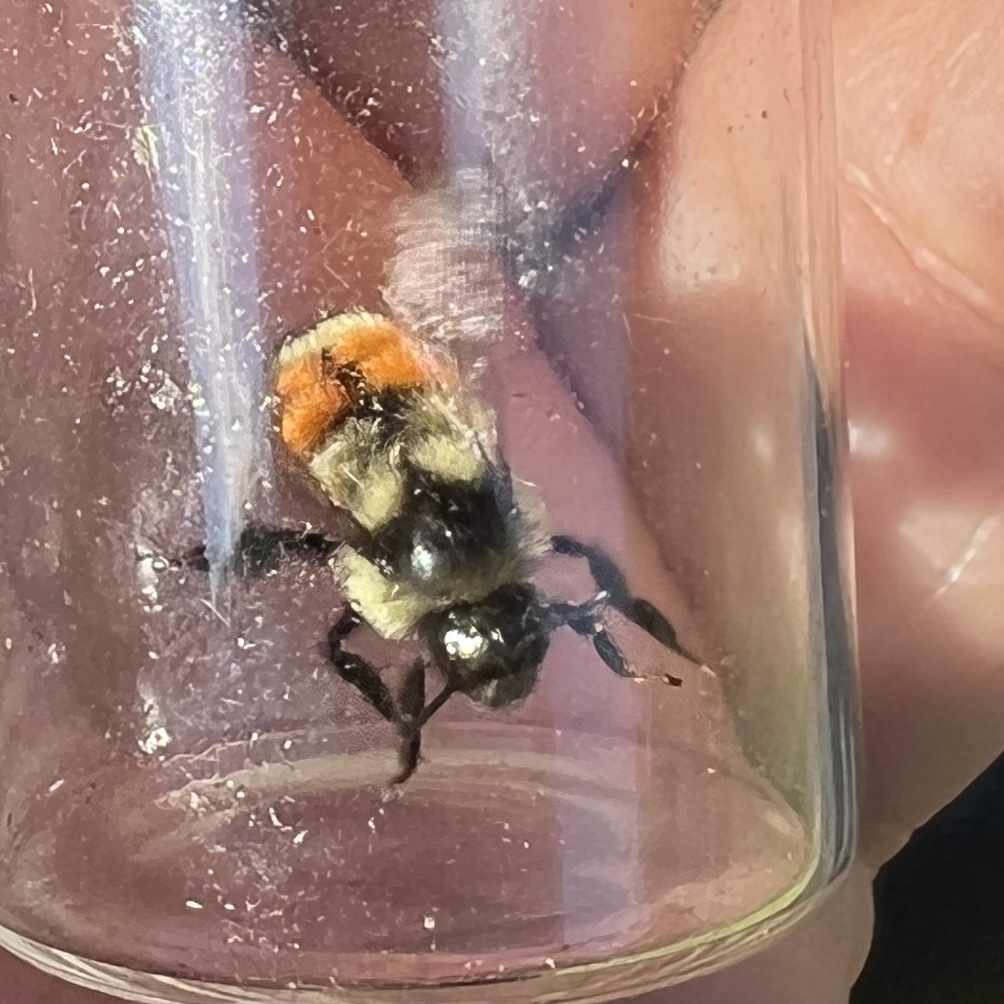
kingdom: Animalia
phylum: Arthropoda
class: Insecta
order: Hymenoptera
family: Apidae
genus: Bombus
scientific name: Bombus ternarius
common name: Tri-colored bumble bee
